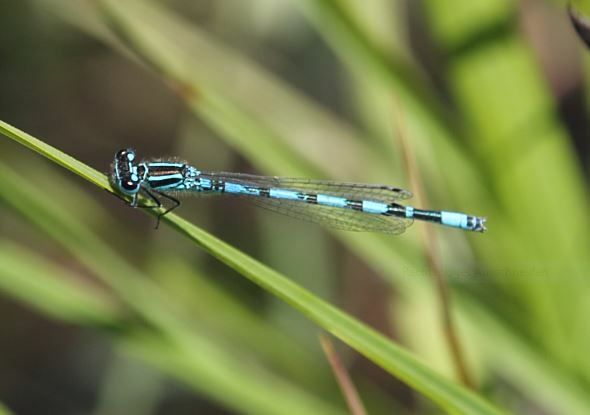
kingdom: Animalia
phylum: Arthropoda
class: Insecta
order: Odonata
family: Coenagrionidae
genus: Coenagrion
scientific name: Coenagrion mercuriale
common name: Southern damselfly
